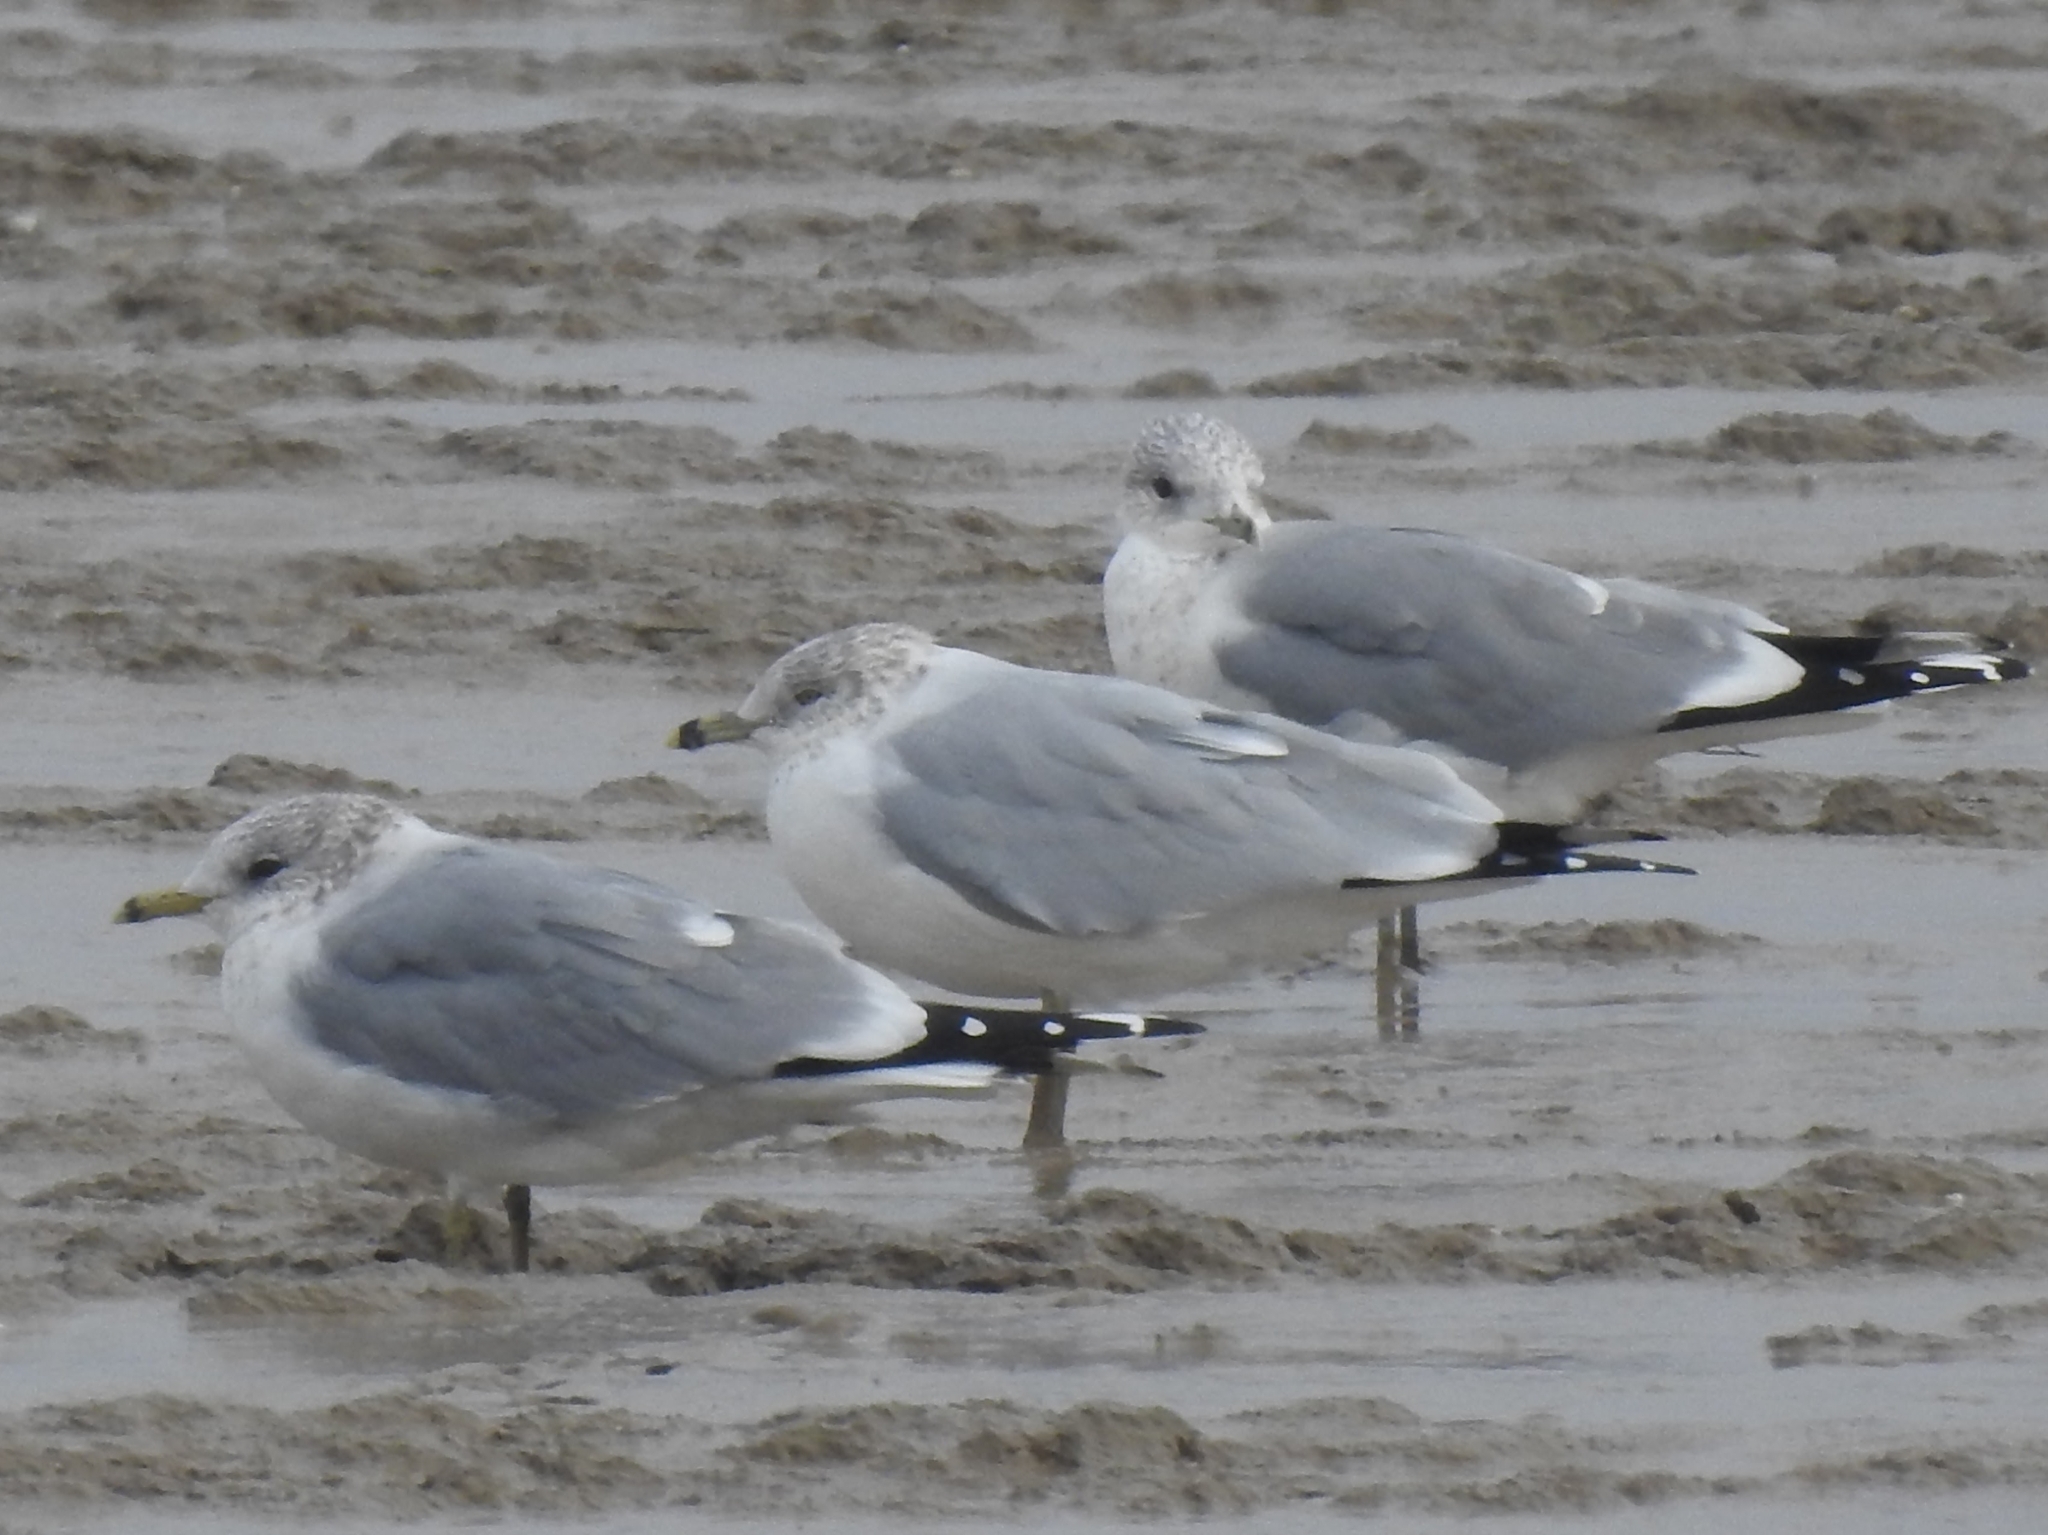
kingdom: Animalia
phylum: Chordata
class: Aves
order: Charadriiformes
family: Laridae
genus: Larus
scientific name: Larus delawarensis
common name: Ring-billed gull
